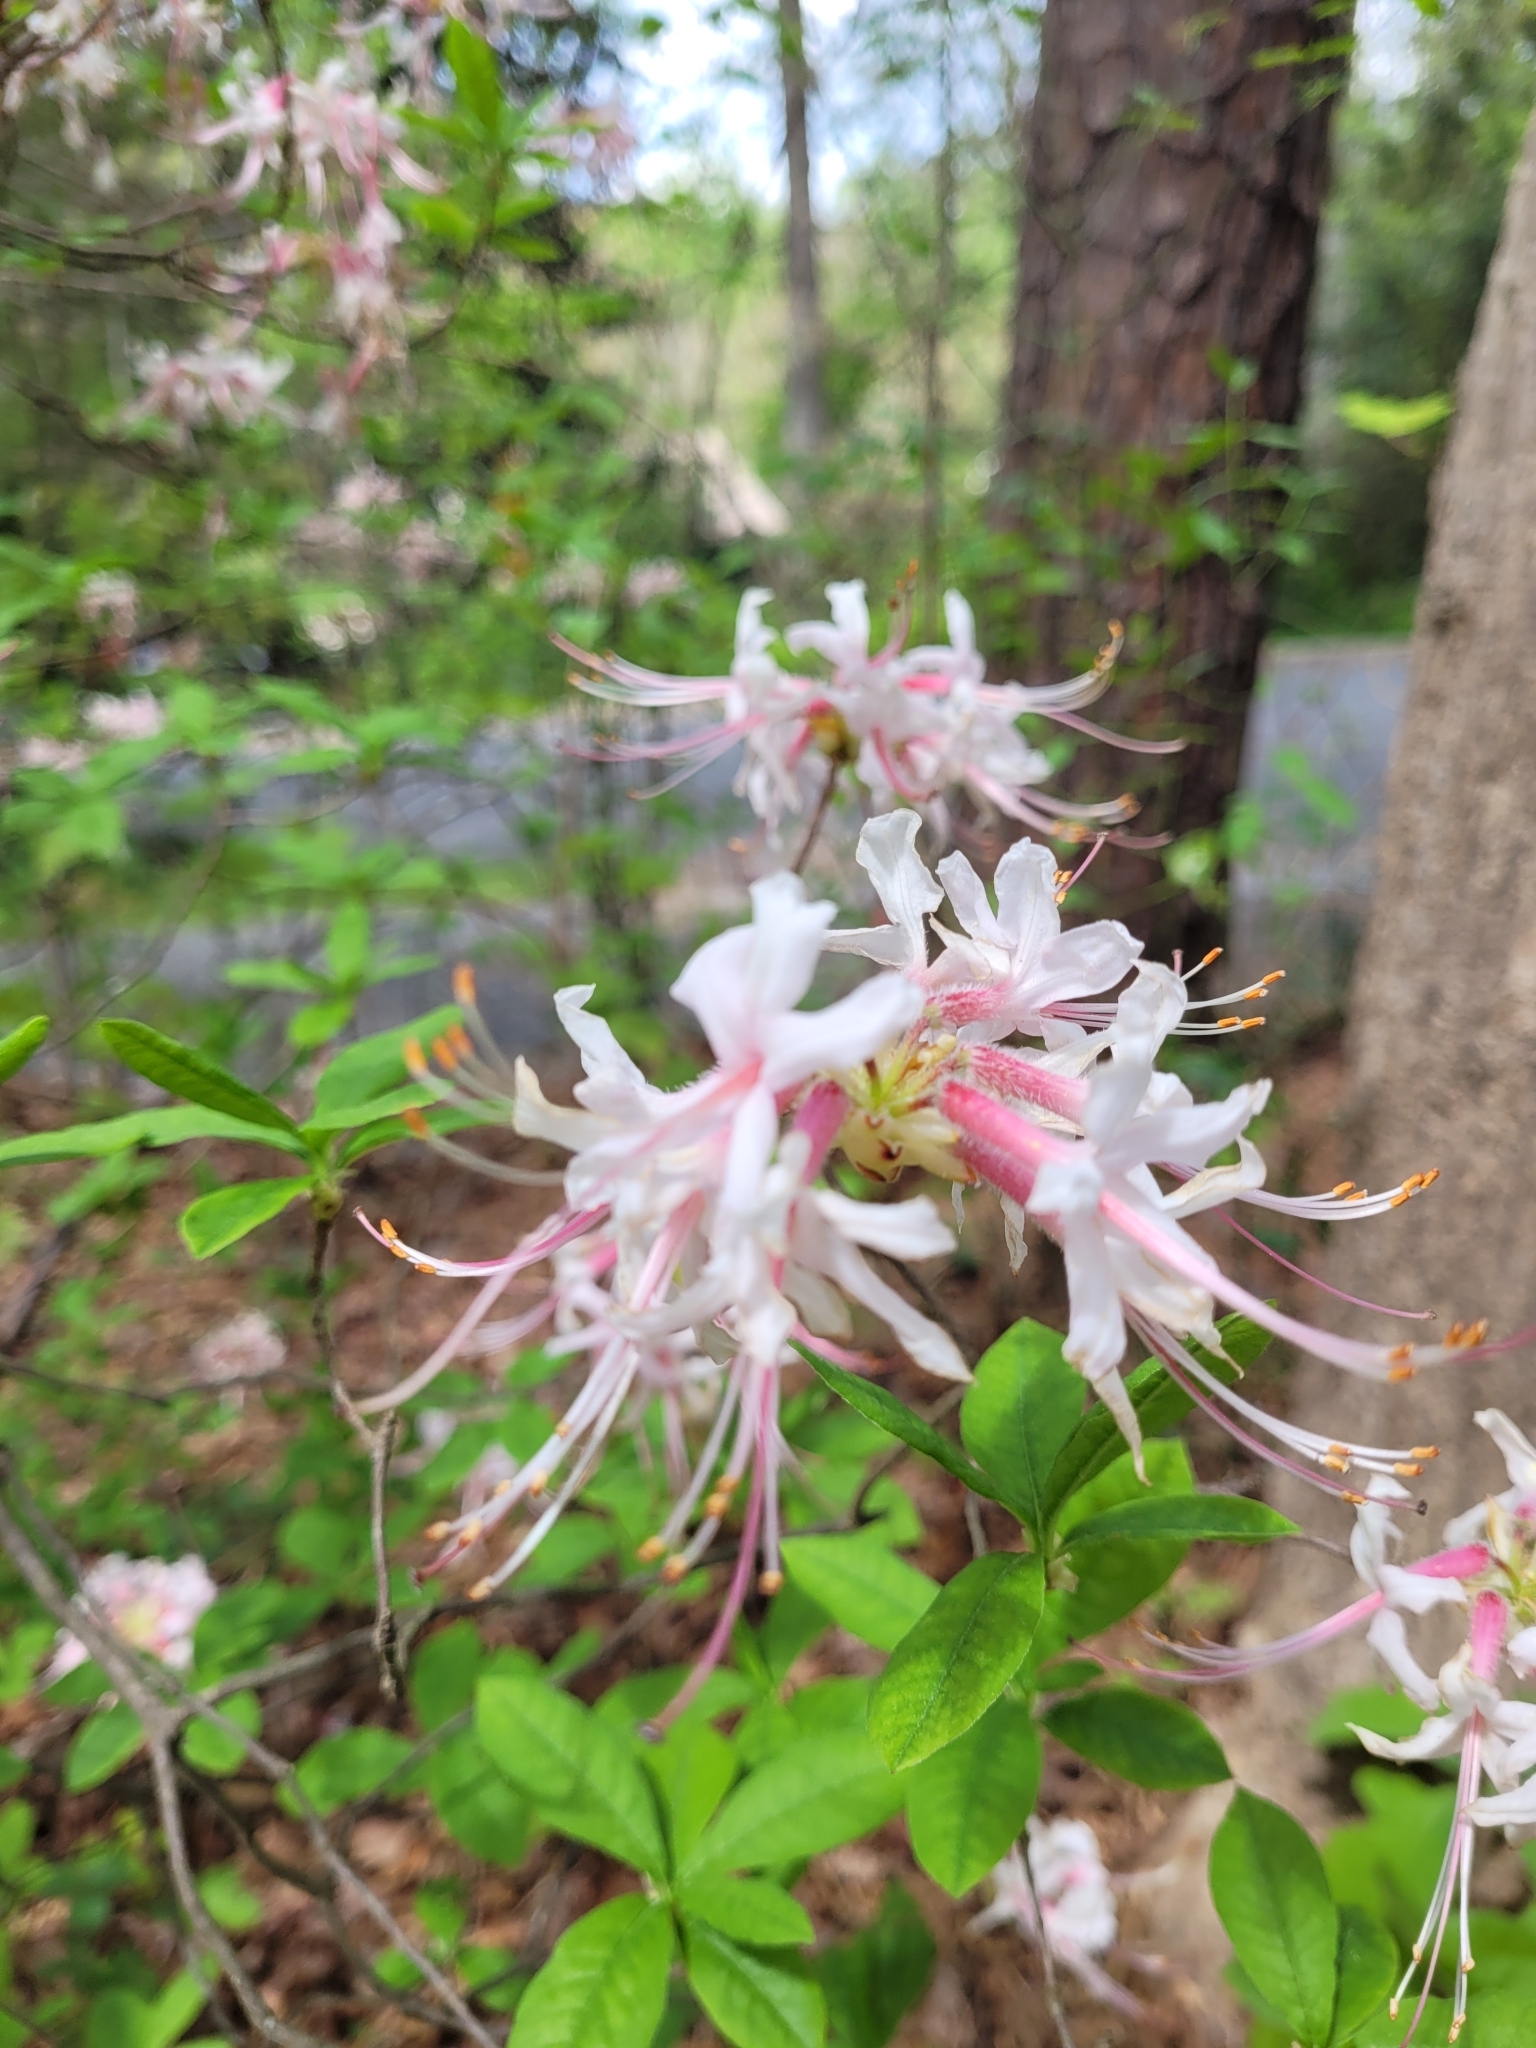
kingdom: Plantae
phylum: Tracheophyta
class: Magnoliopsida
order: Ericales
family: Ericaceae
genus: Rhododendron
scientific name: Rhododendron periclymenoides
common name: Election-pink
